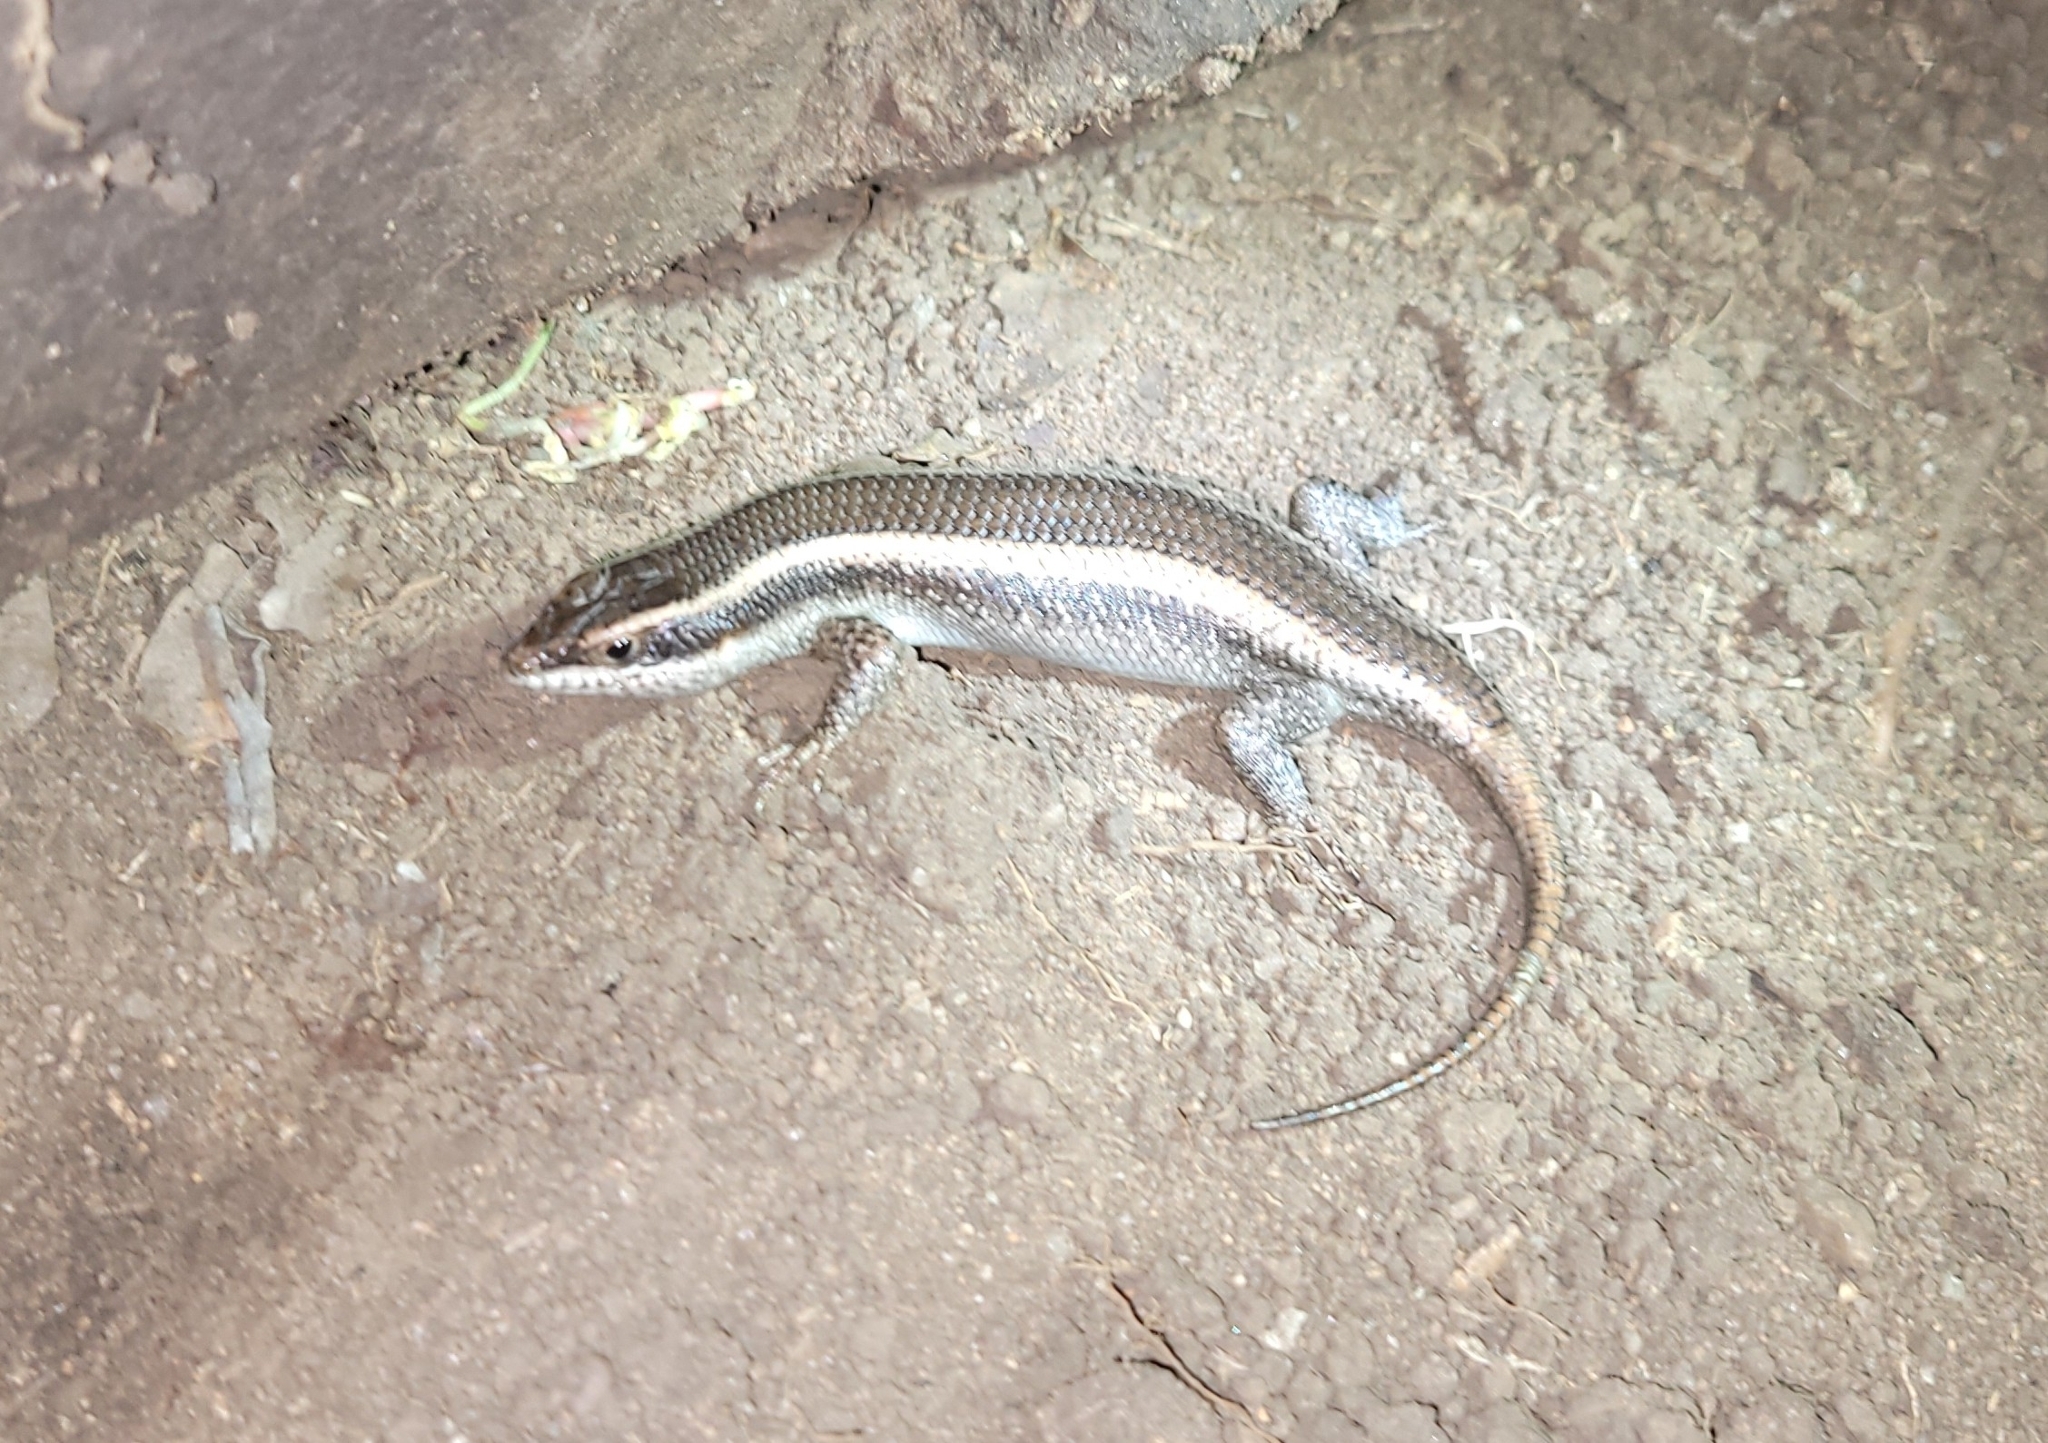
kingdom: Animalia
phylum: Chordata
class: Squamata
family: Scincidae
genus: Trachylepis
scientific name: Trachylepis striata
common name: African striped mabuya
